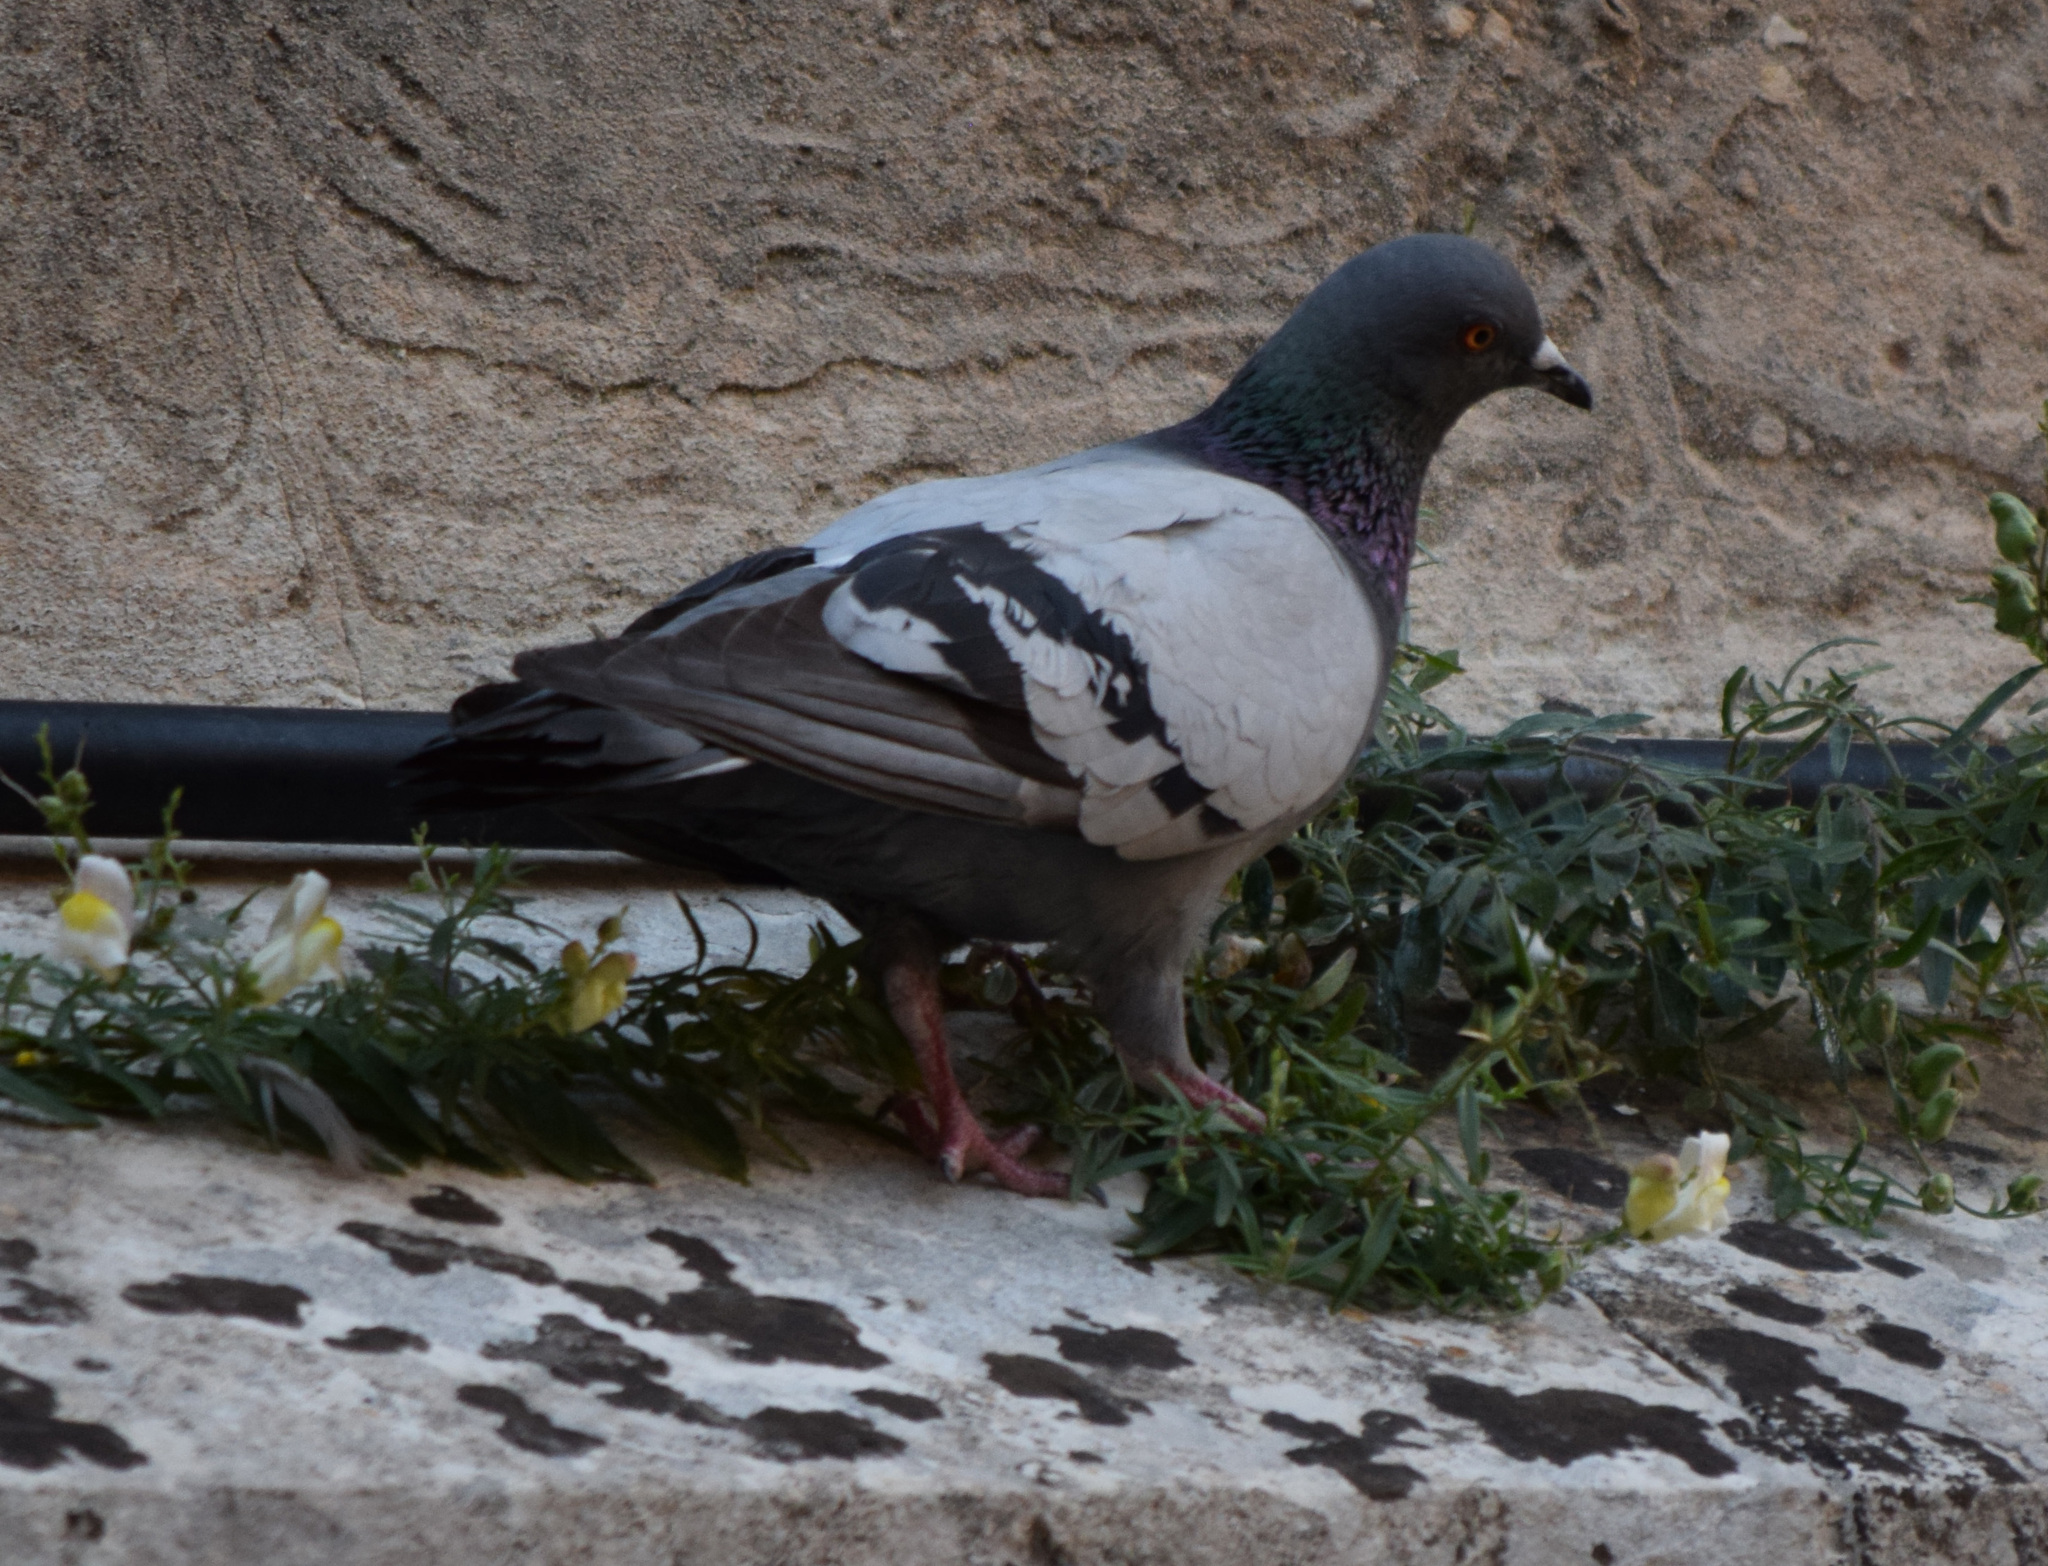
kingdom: Animalia
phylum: Chordata
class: Aves
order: Columbiformes
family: Columbidae
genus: Columba
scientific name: Columba livia
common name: Rock pigeon
